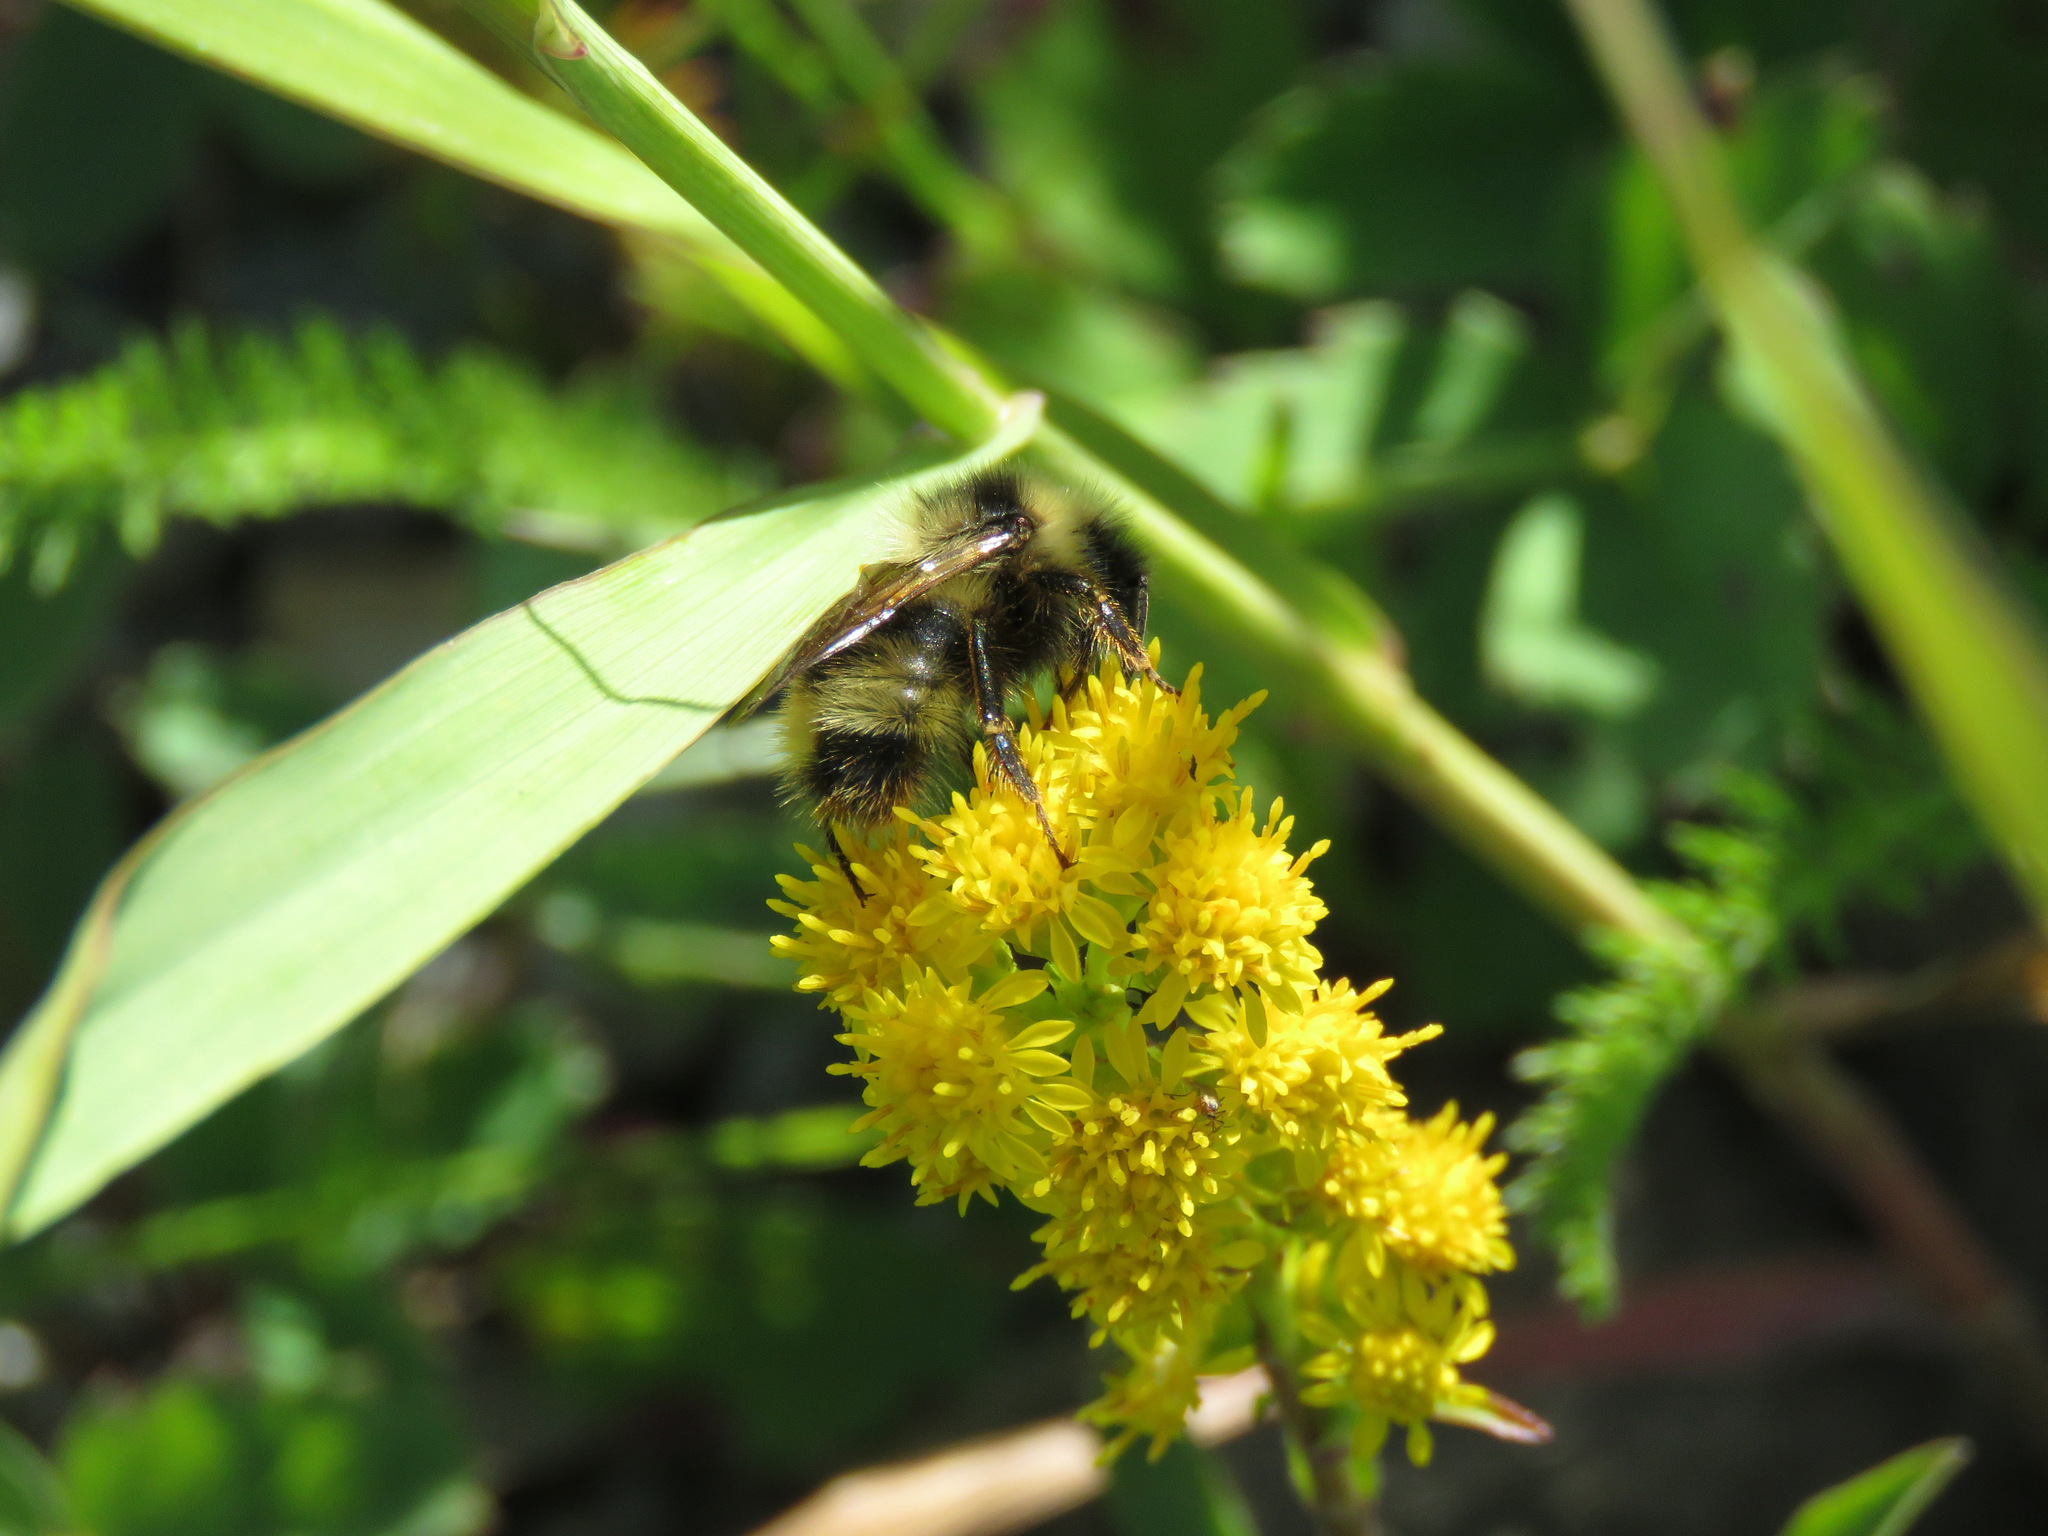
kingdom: Animalia
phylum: Arthropoda
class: Insecta
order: Hymenoptera
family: Apidae
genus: Bombus
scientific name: Bombus flavidus
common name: Fernald cuckoo bumble bee
